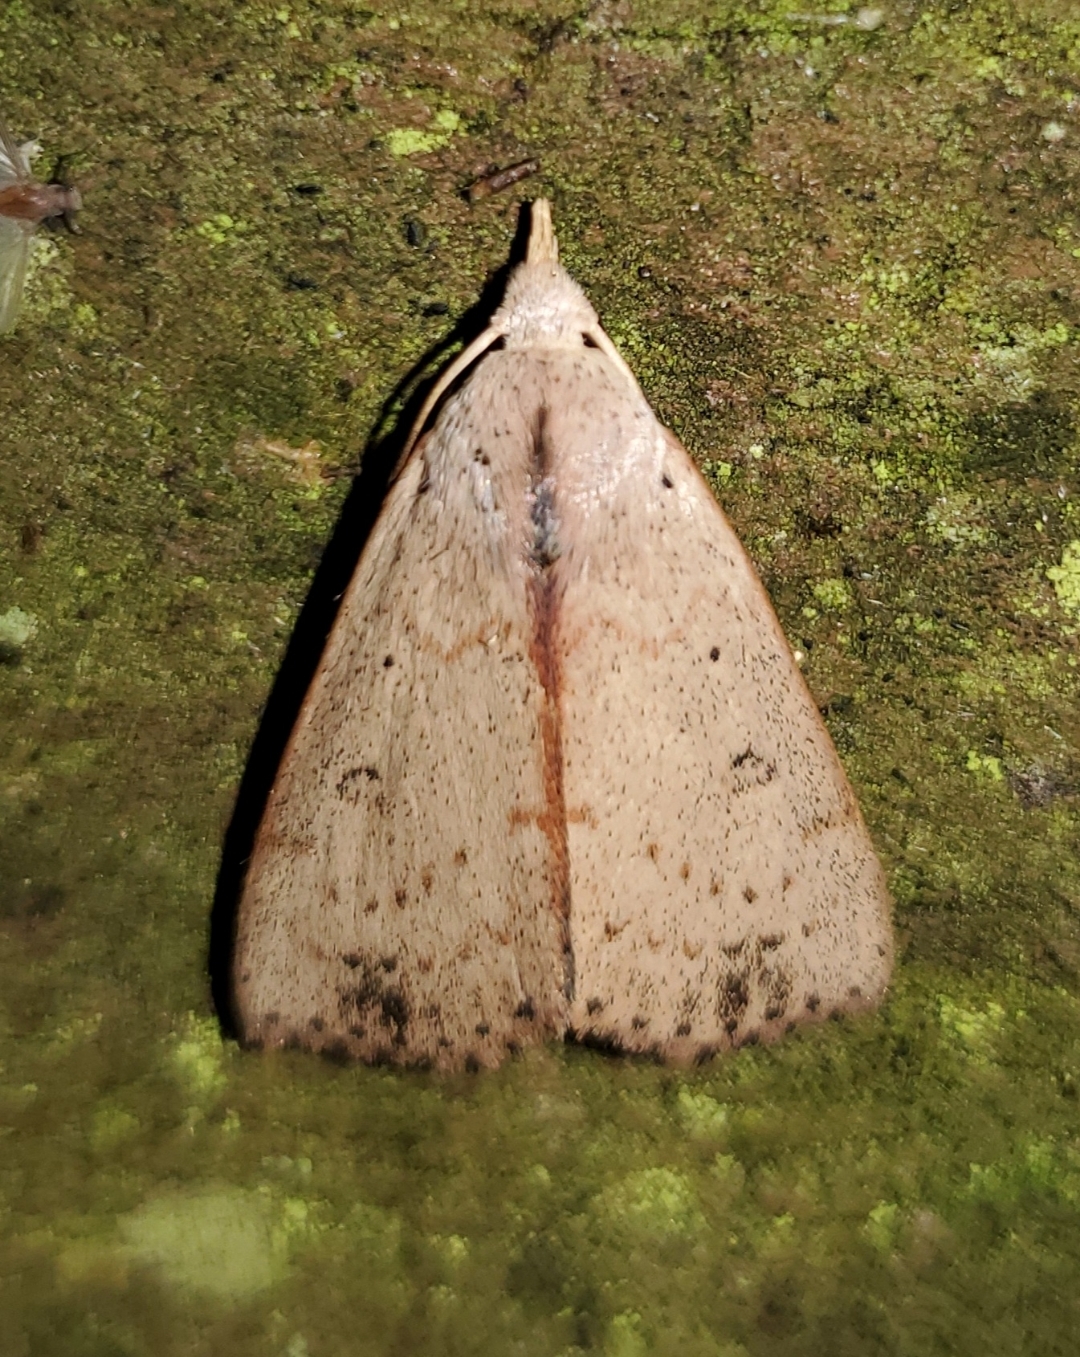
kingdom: Animalia
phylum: Arthropoda
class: Insecta
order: Lepidoptera
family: Erebidae
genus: Scolecocampa
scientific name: Scolecocampa liburna
